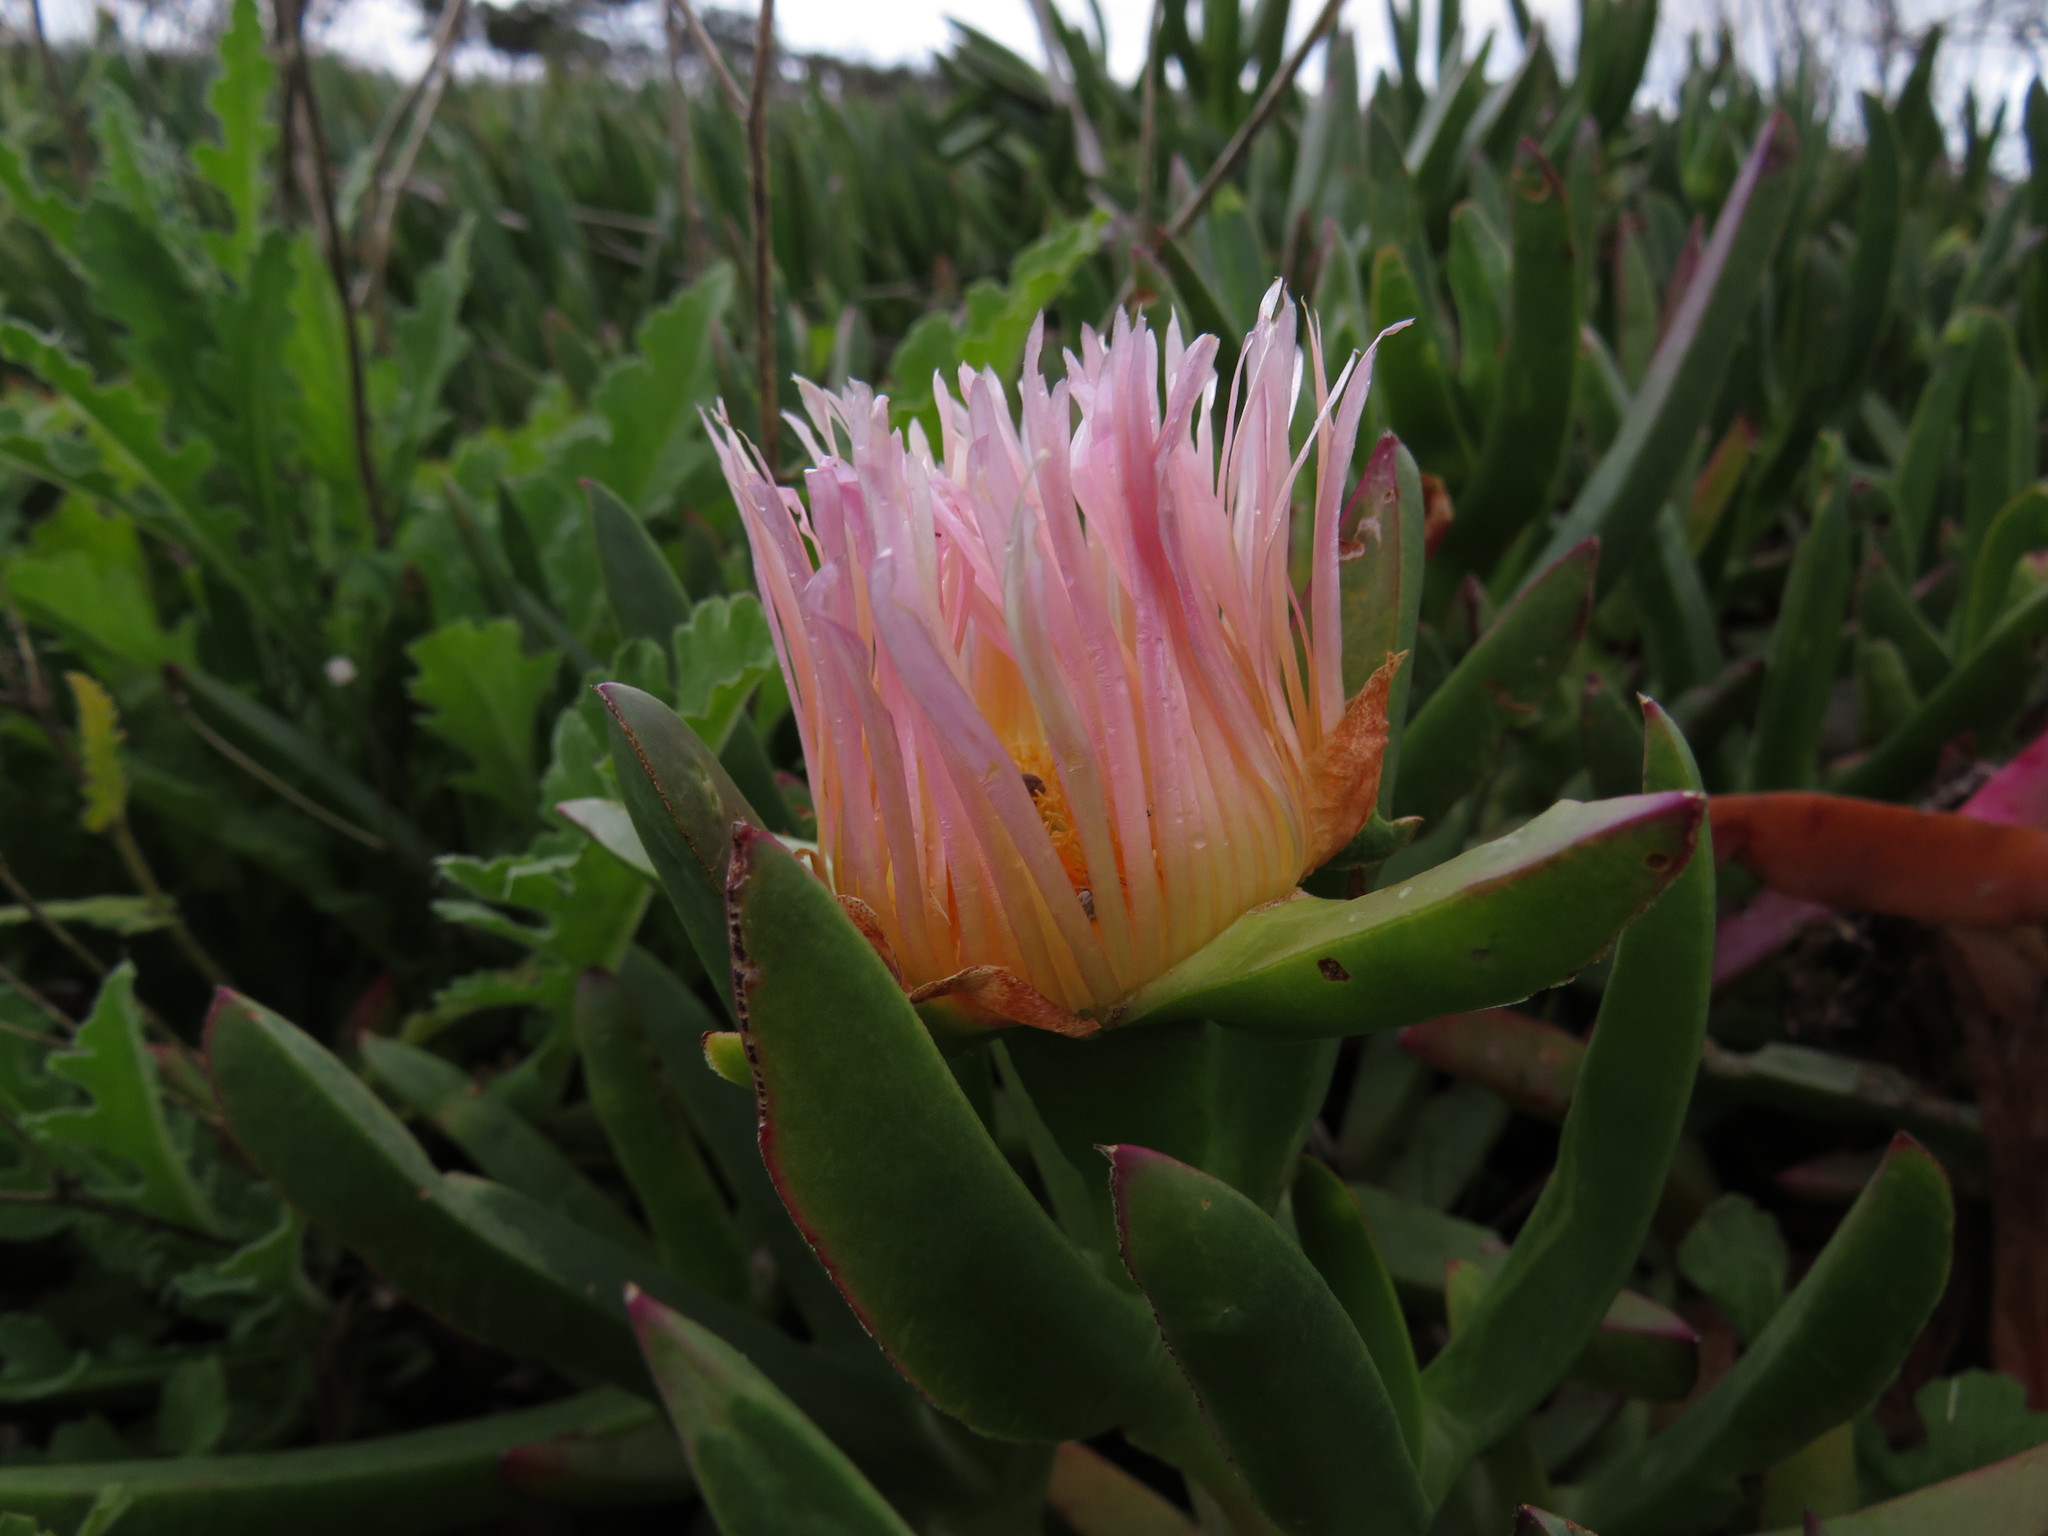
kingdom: Plantae
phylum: Tracheophyta
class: Magnoliopsida
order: Caryophyllales
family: Aizoaceae
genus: Carpobrotus
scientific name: Carpobrotus edulis
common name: Hottentot-fig
